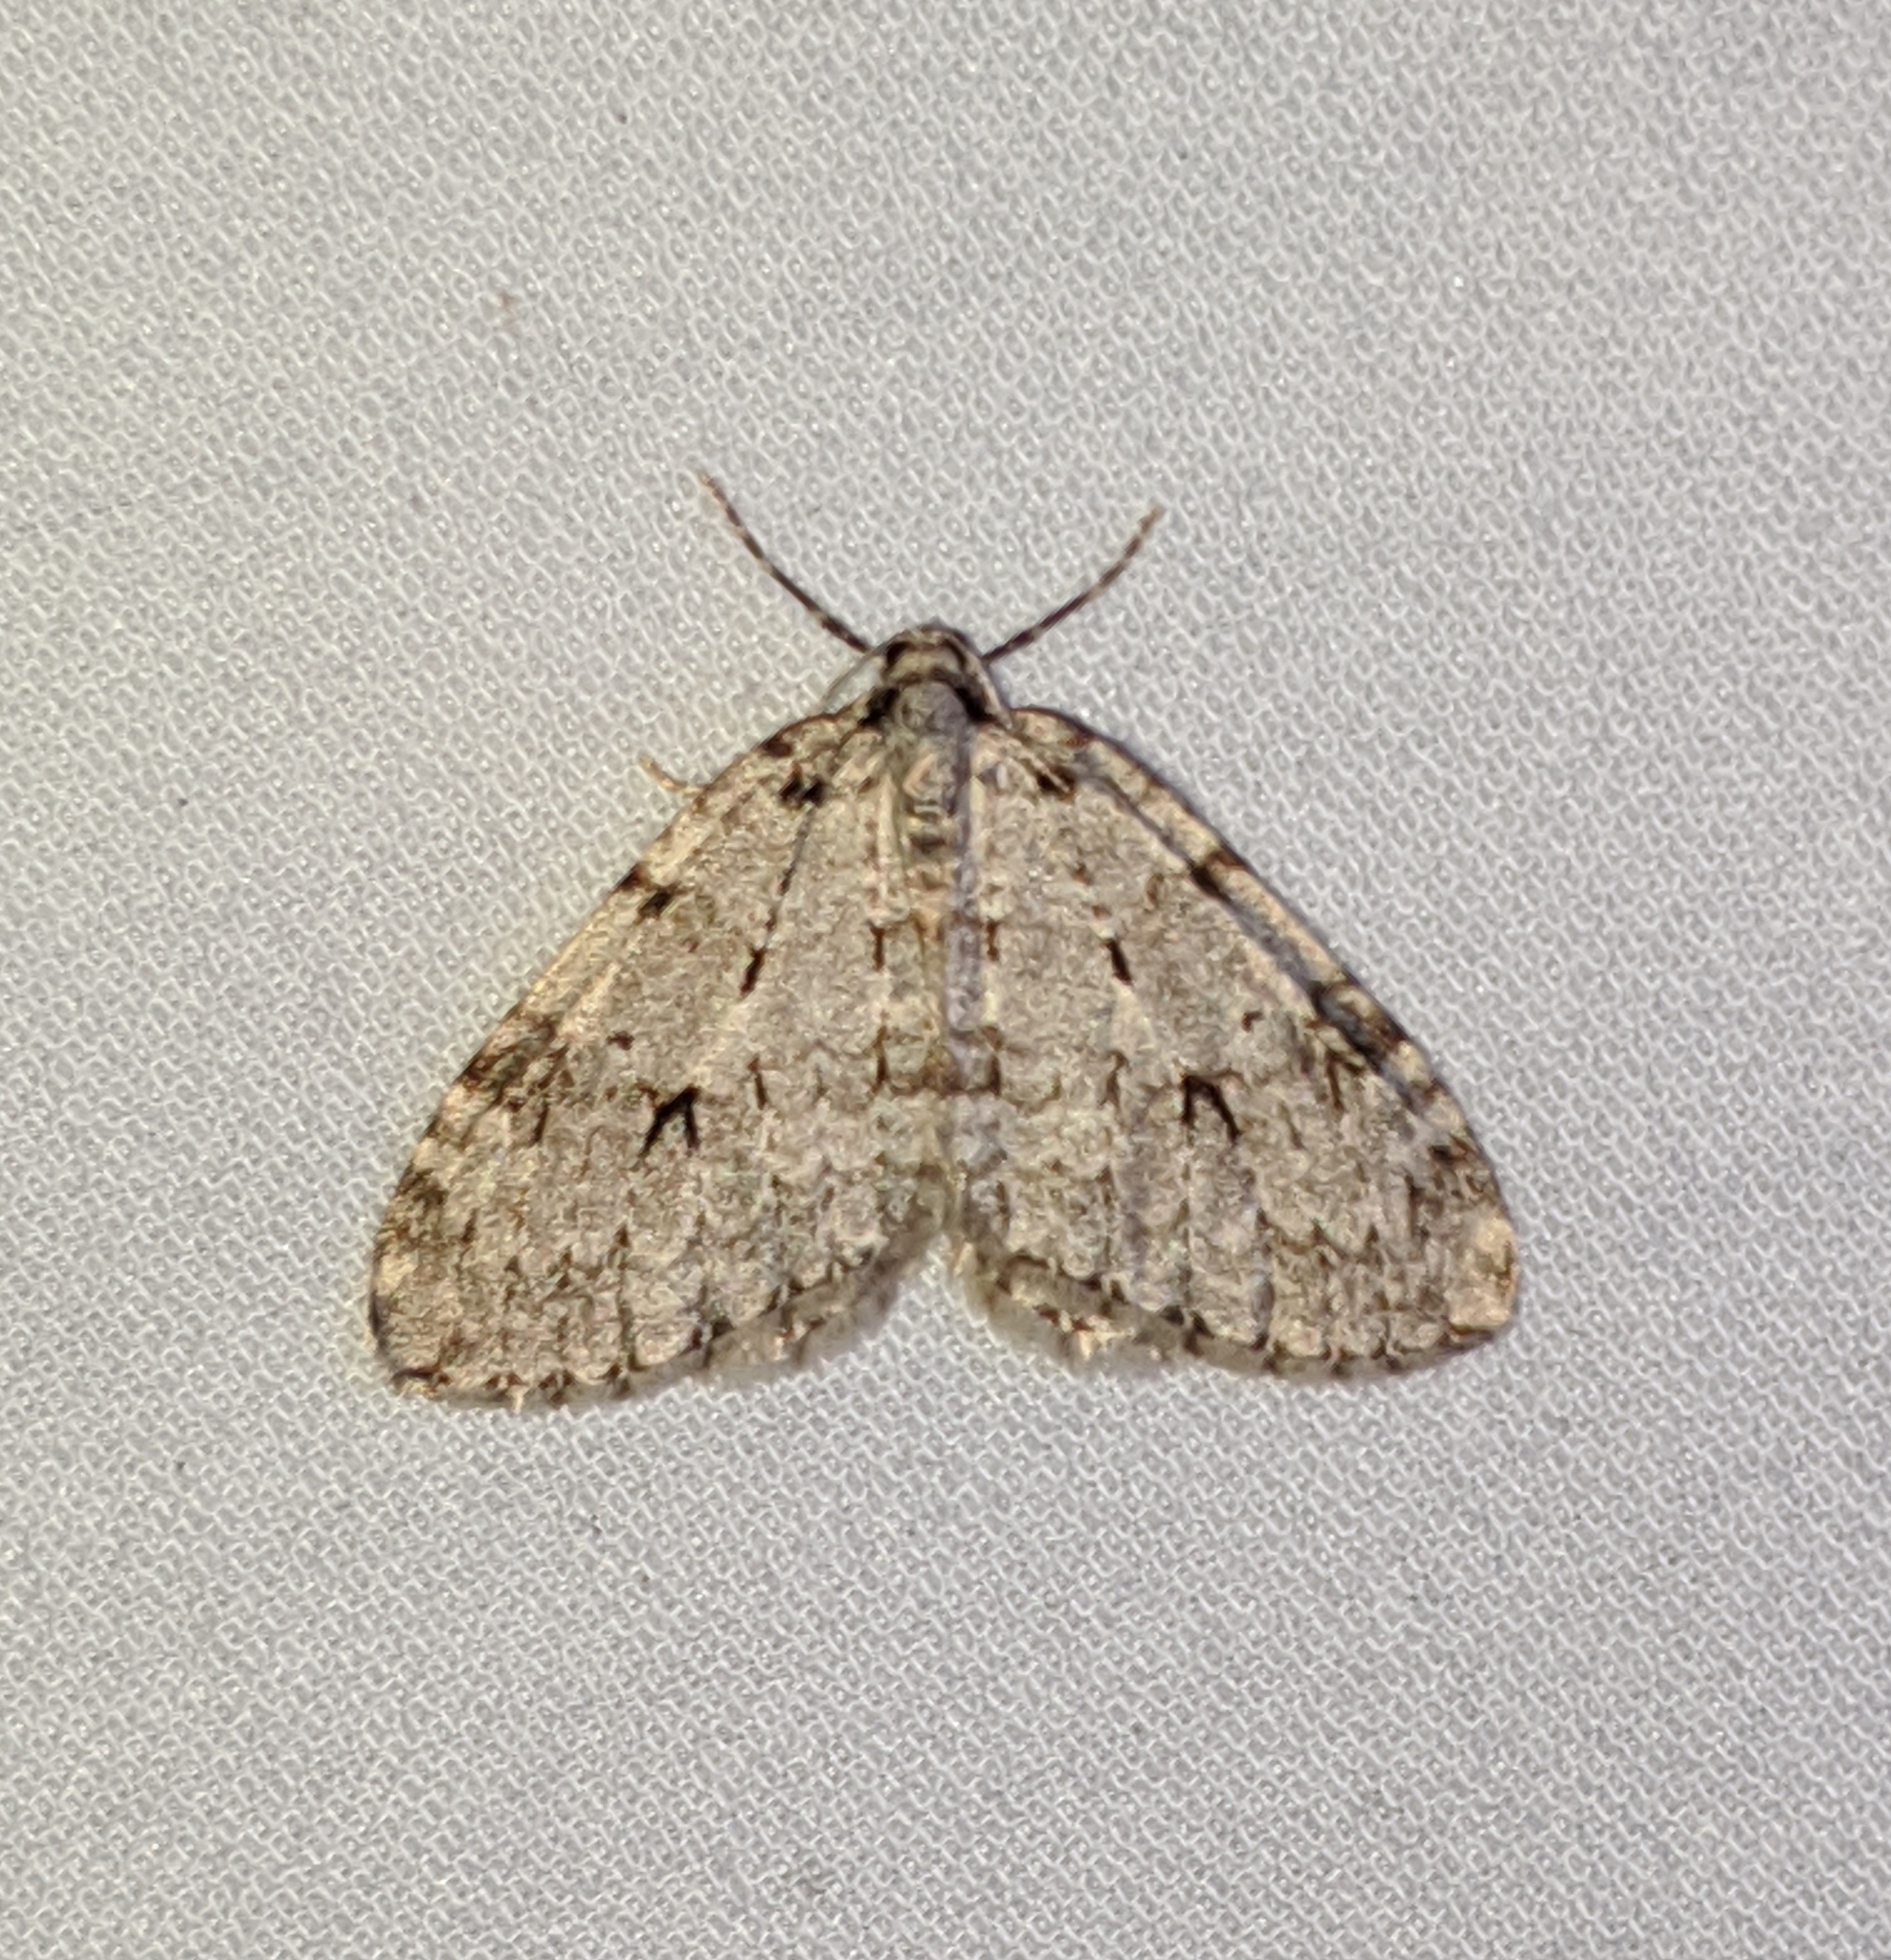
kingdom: Animalia
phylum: Arthropoda
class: Insecta
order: Lepidoptera
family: Geometridae
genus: Epirrita
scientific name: Epirrita autumnata
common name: Autumnal moth
